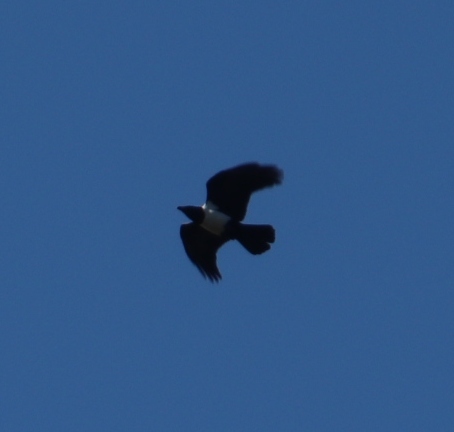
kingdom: Animalia
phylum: Chordata
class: Aves
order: Passeriformes
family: Corvidae
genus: Corvus
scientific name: Corvus albus
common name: Pied crow
